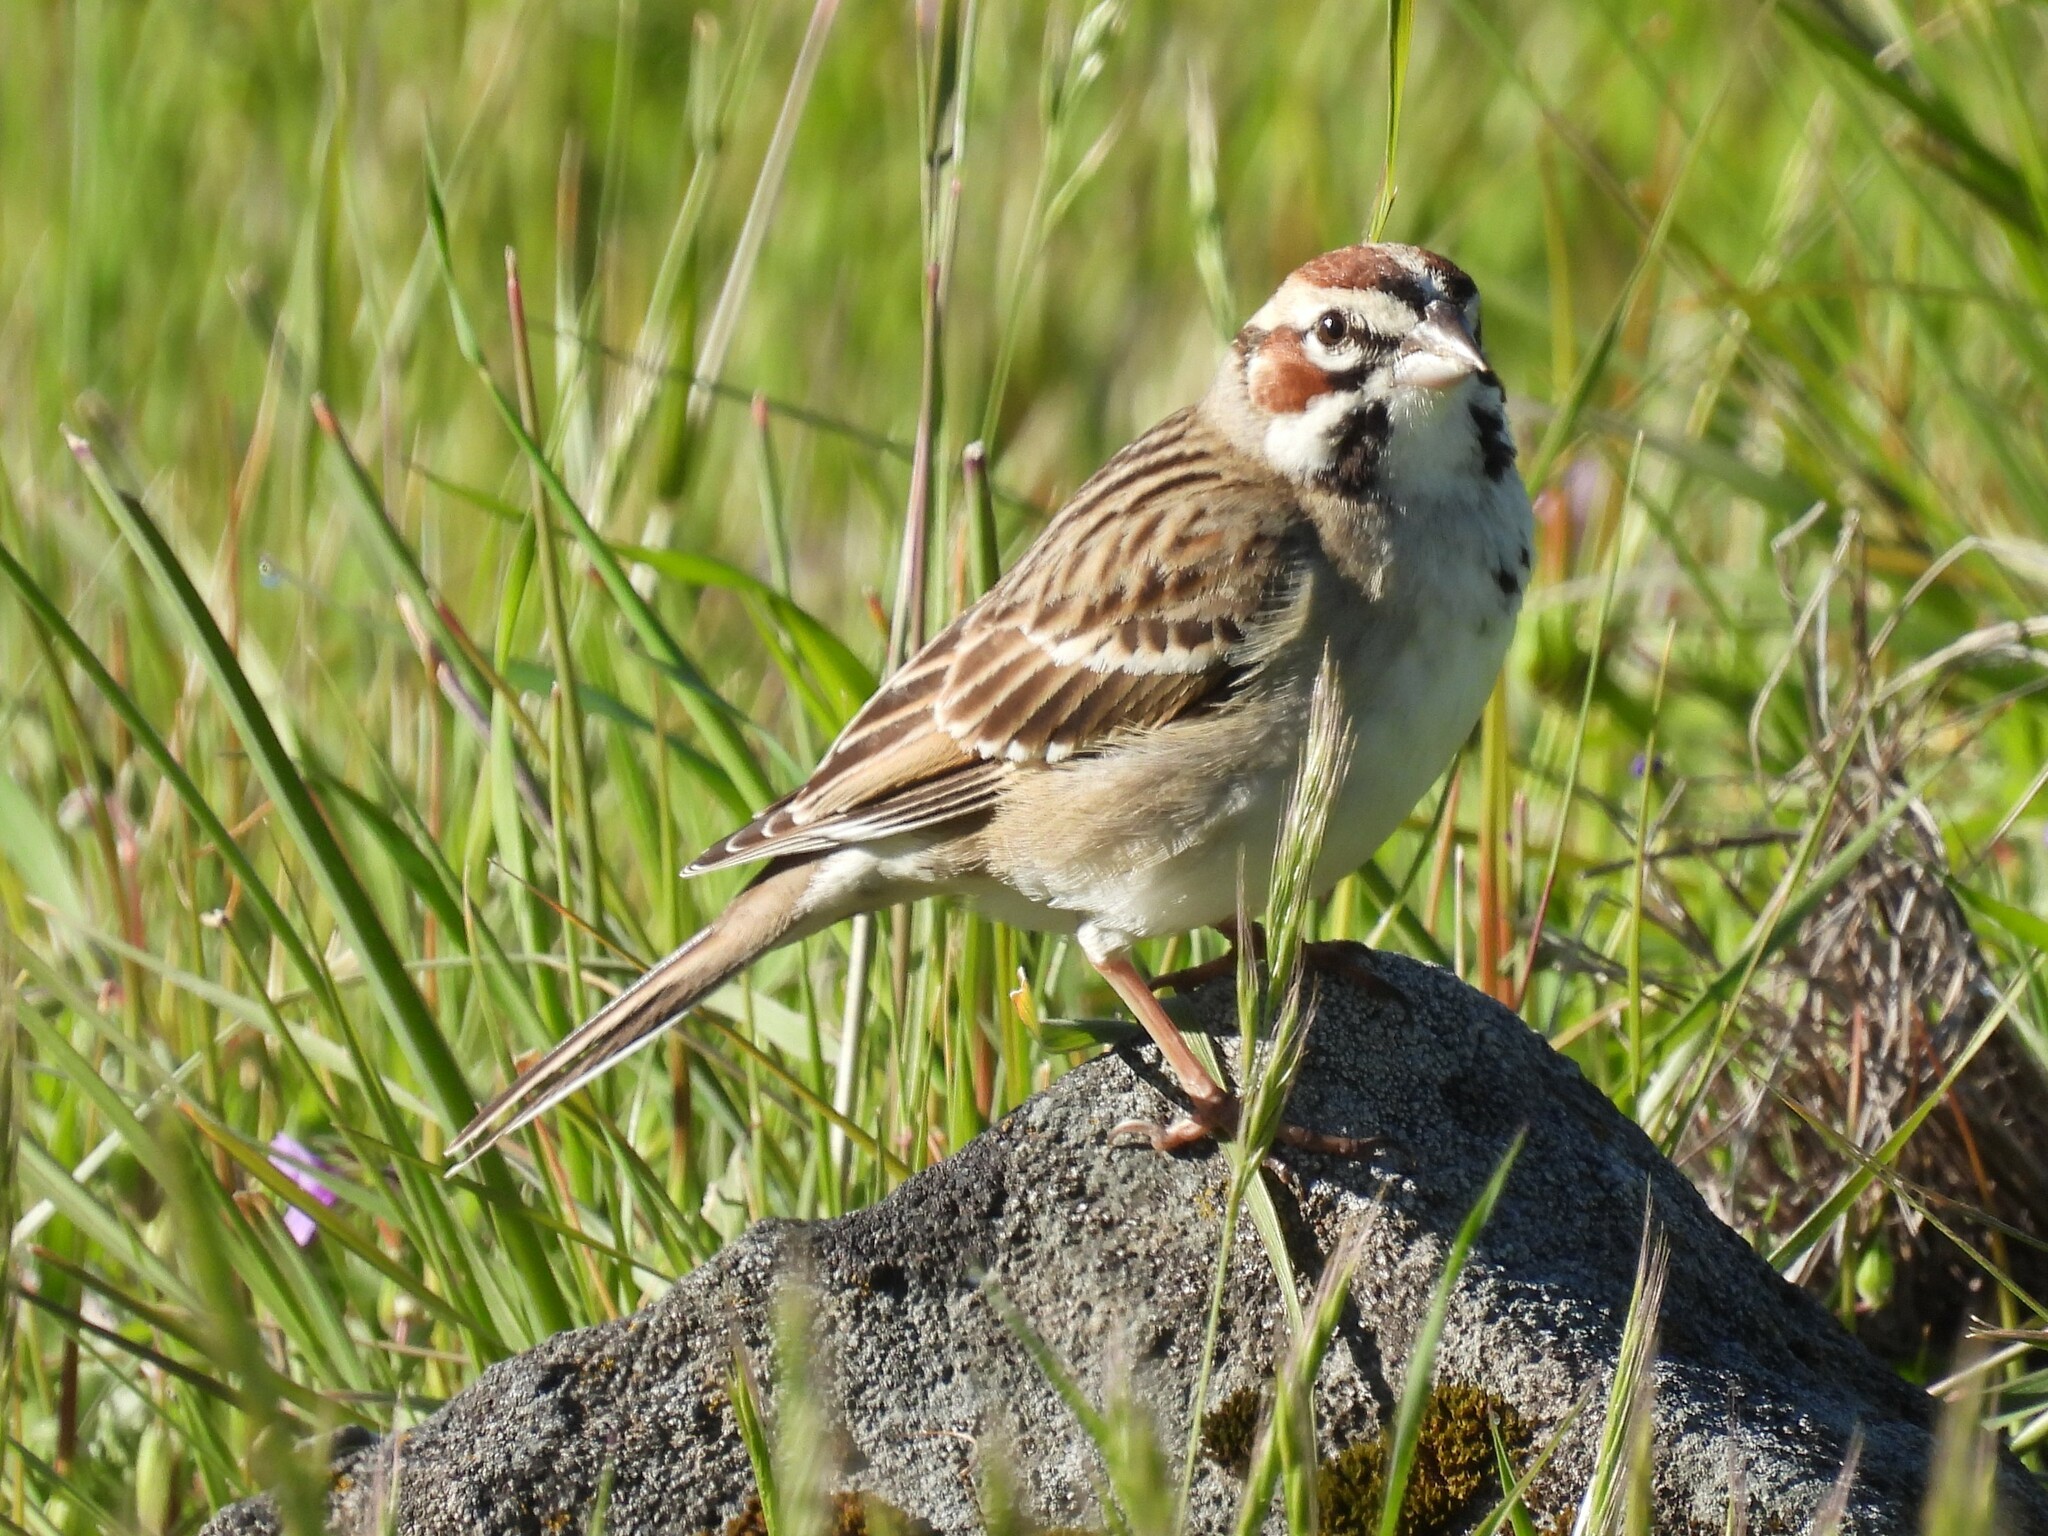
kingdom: Animalia
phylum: Chordata
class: Aves
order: Passeriformes
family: Passerellidae
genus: Chondestes
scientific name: Chondestes grammacus
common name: Lark sparrow
